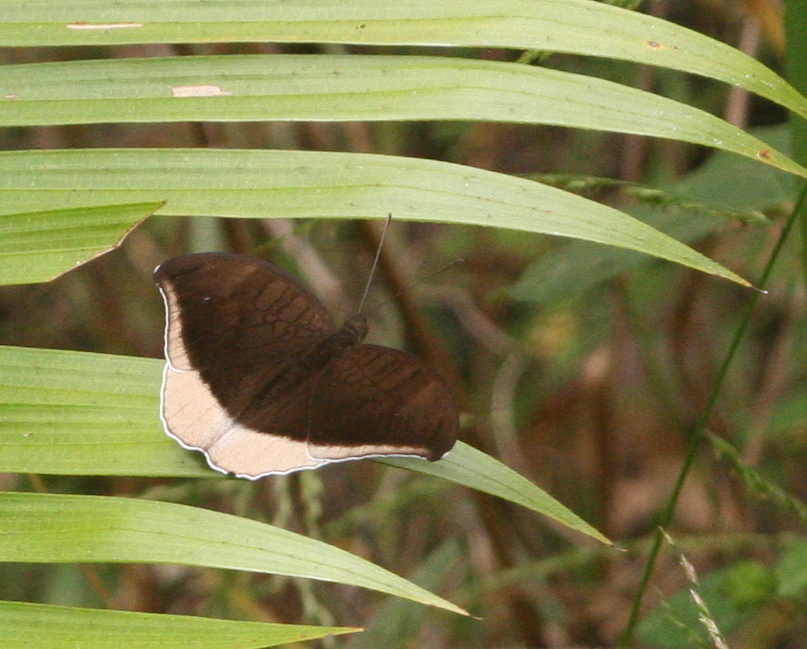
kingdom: Animalia
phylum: Arthropoda
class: Insecta
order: Lepidoptera
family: Nymphalidae
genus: Tanaecia
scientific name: Tanaecia lepidea
